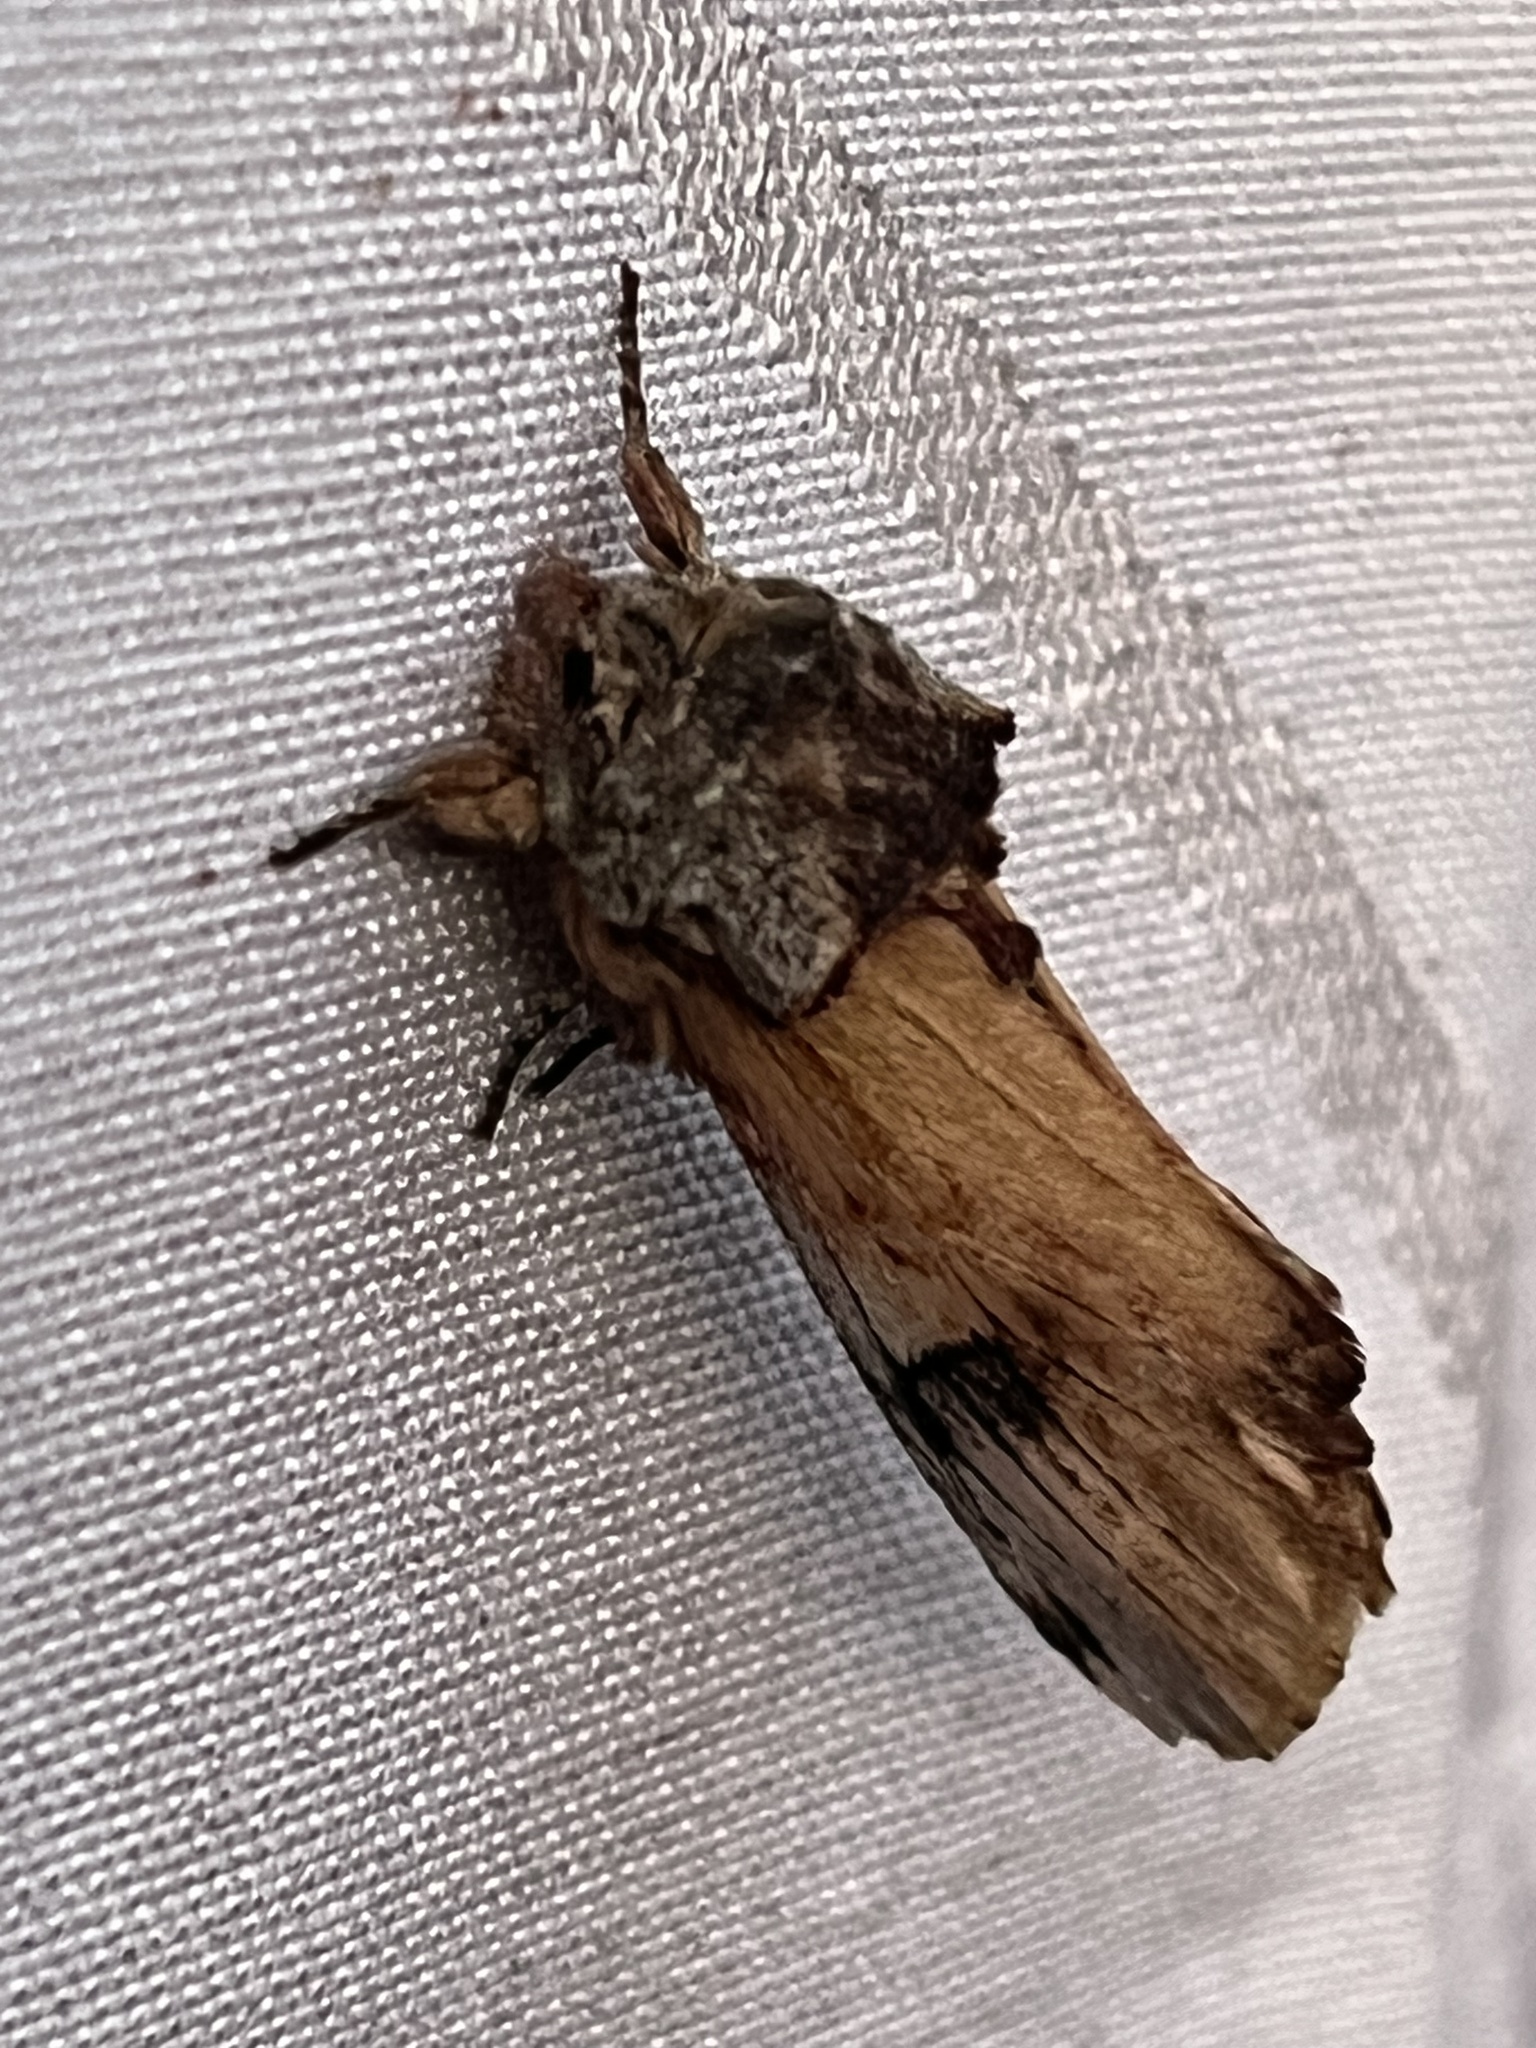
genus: Ianassa
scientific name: Ianassa
